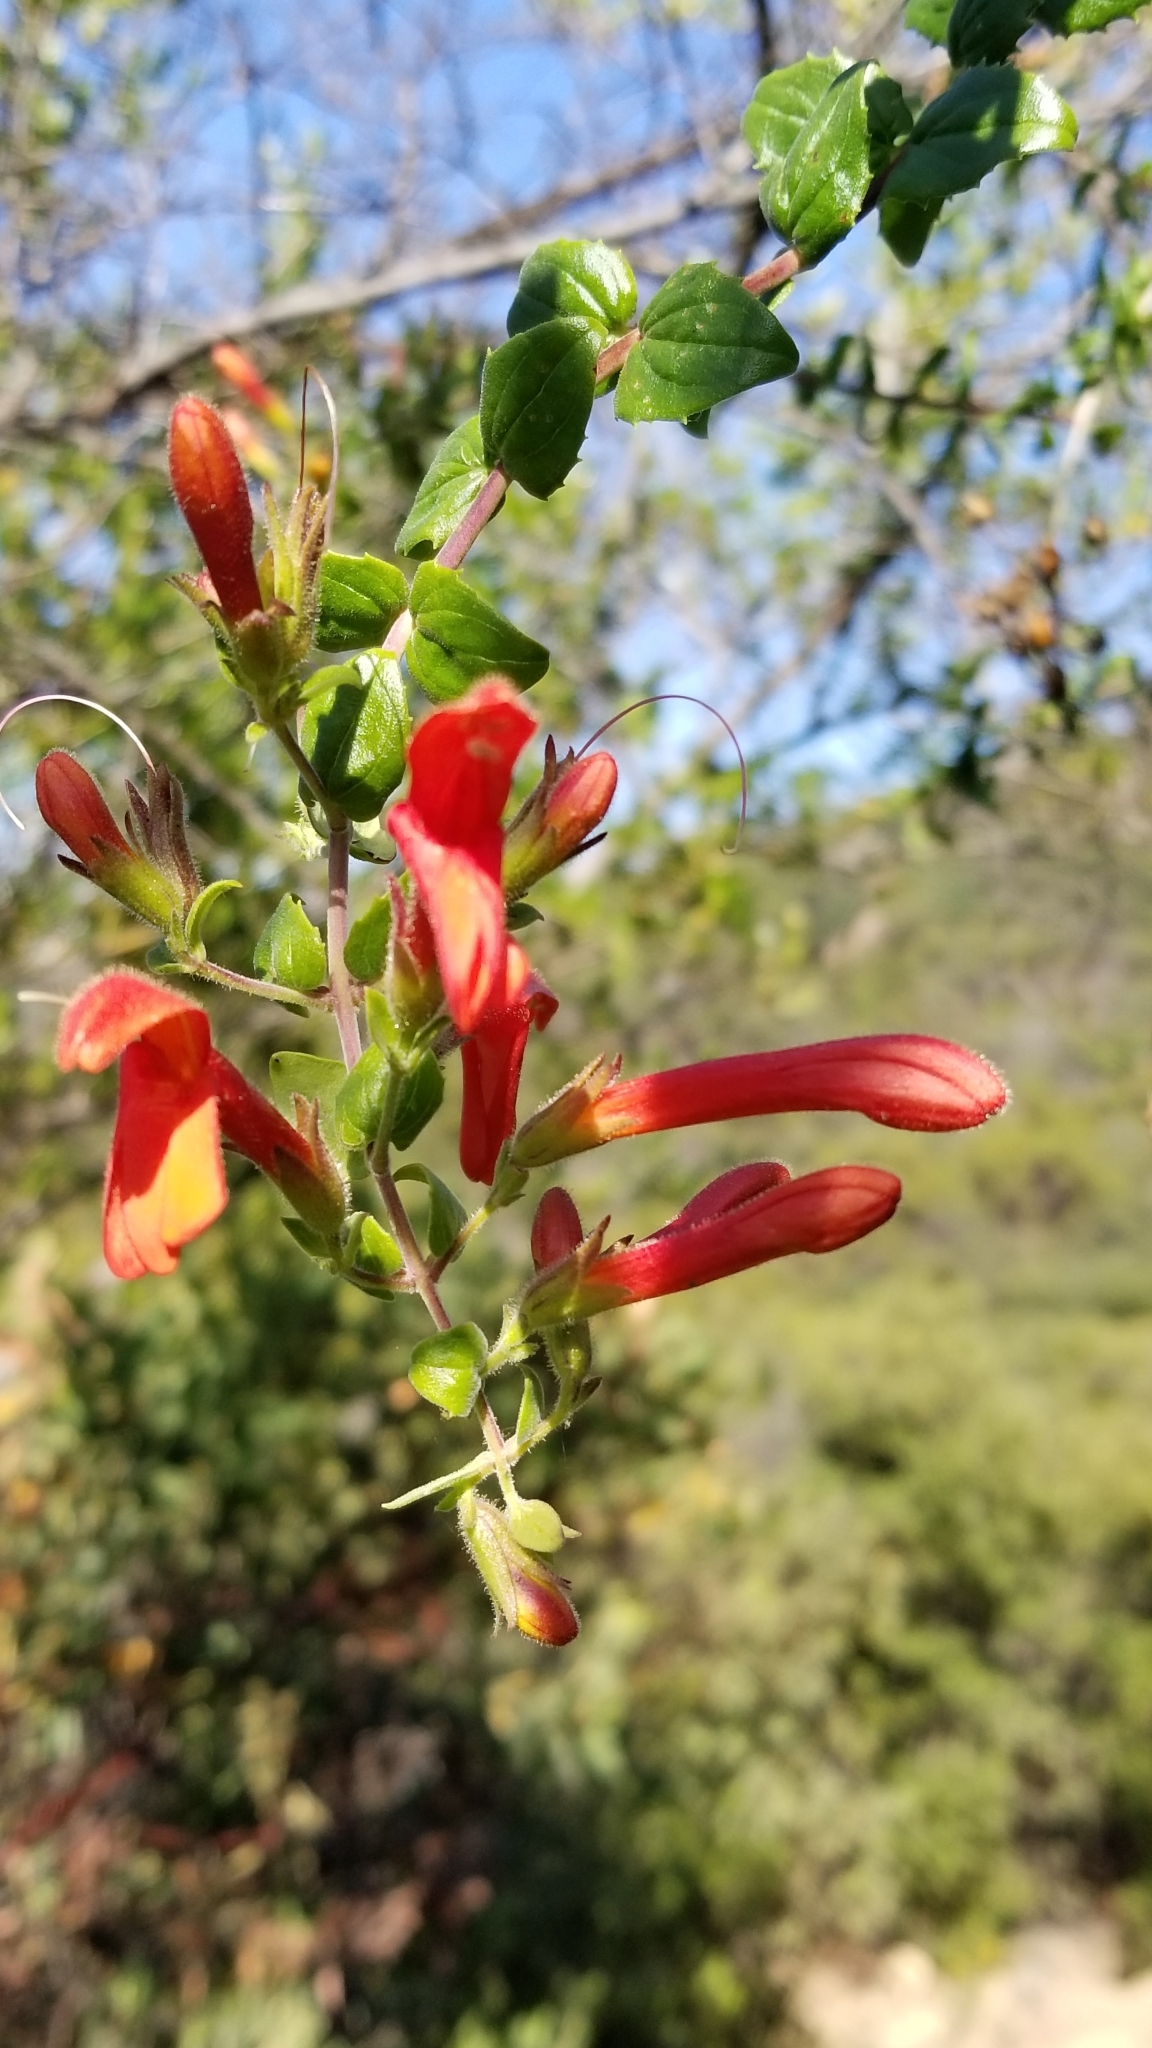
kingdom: Plantae
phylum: Tracheophyta
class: Magnoliopsida
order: Lamiales
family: Plantaginaceae
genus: Keckiella
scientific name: Keckiella cordifolia
